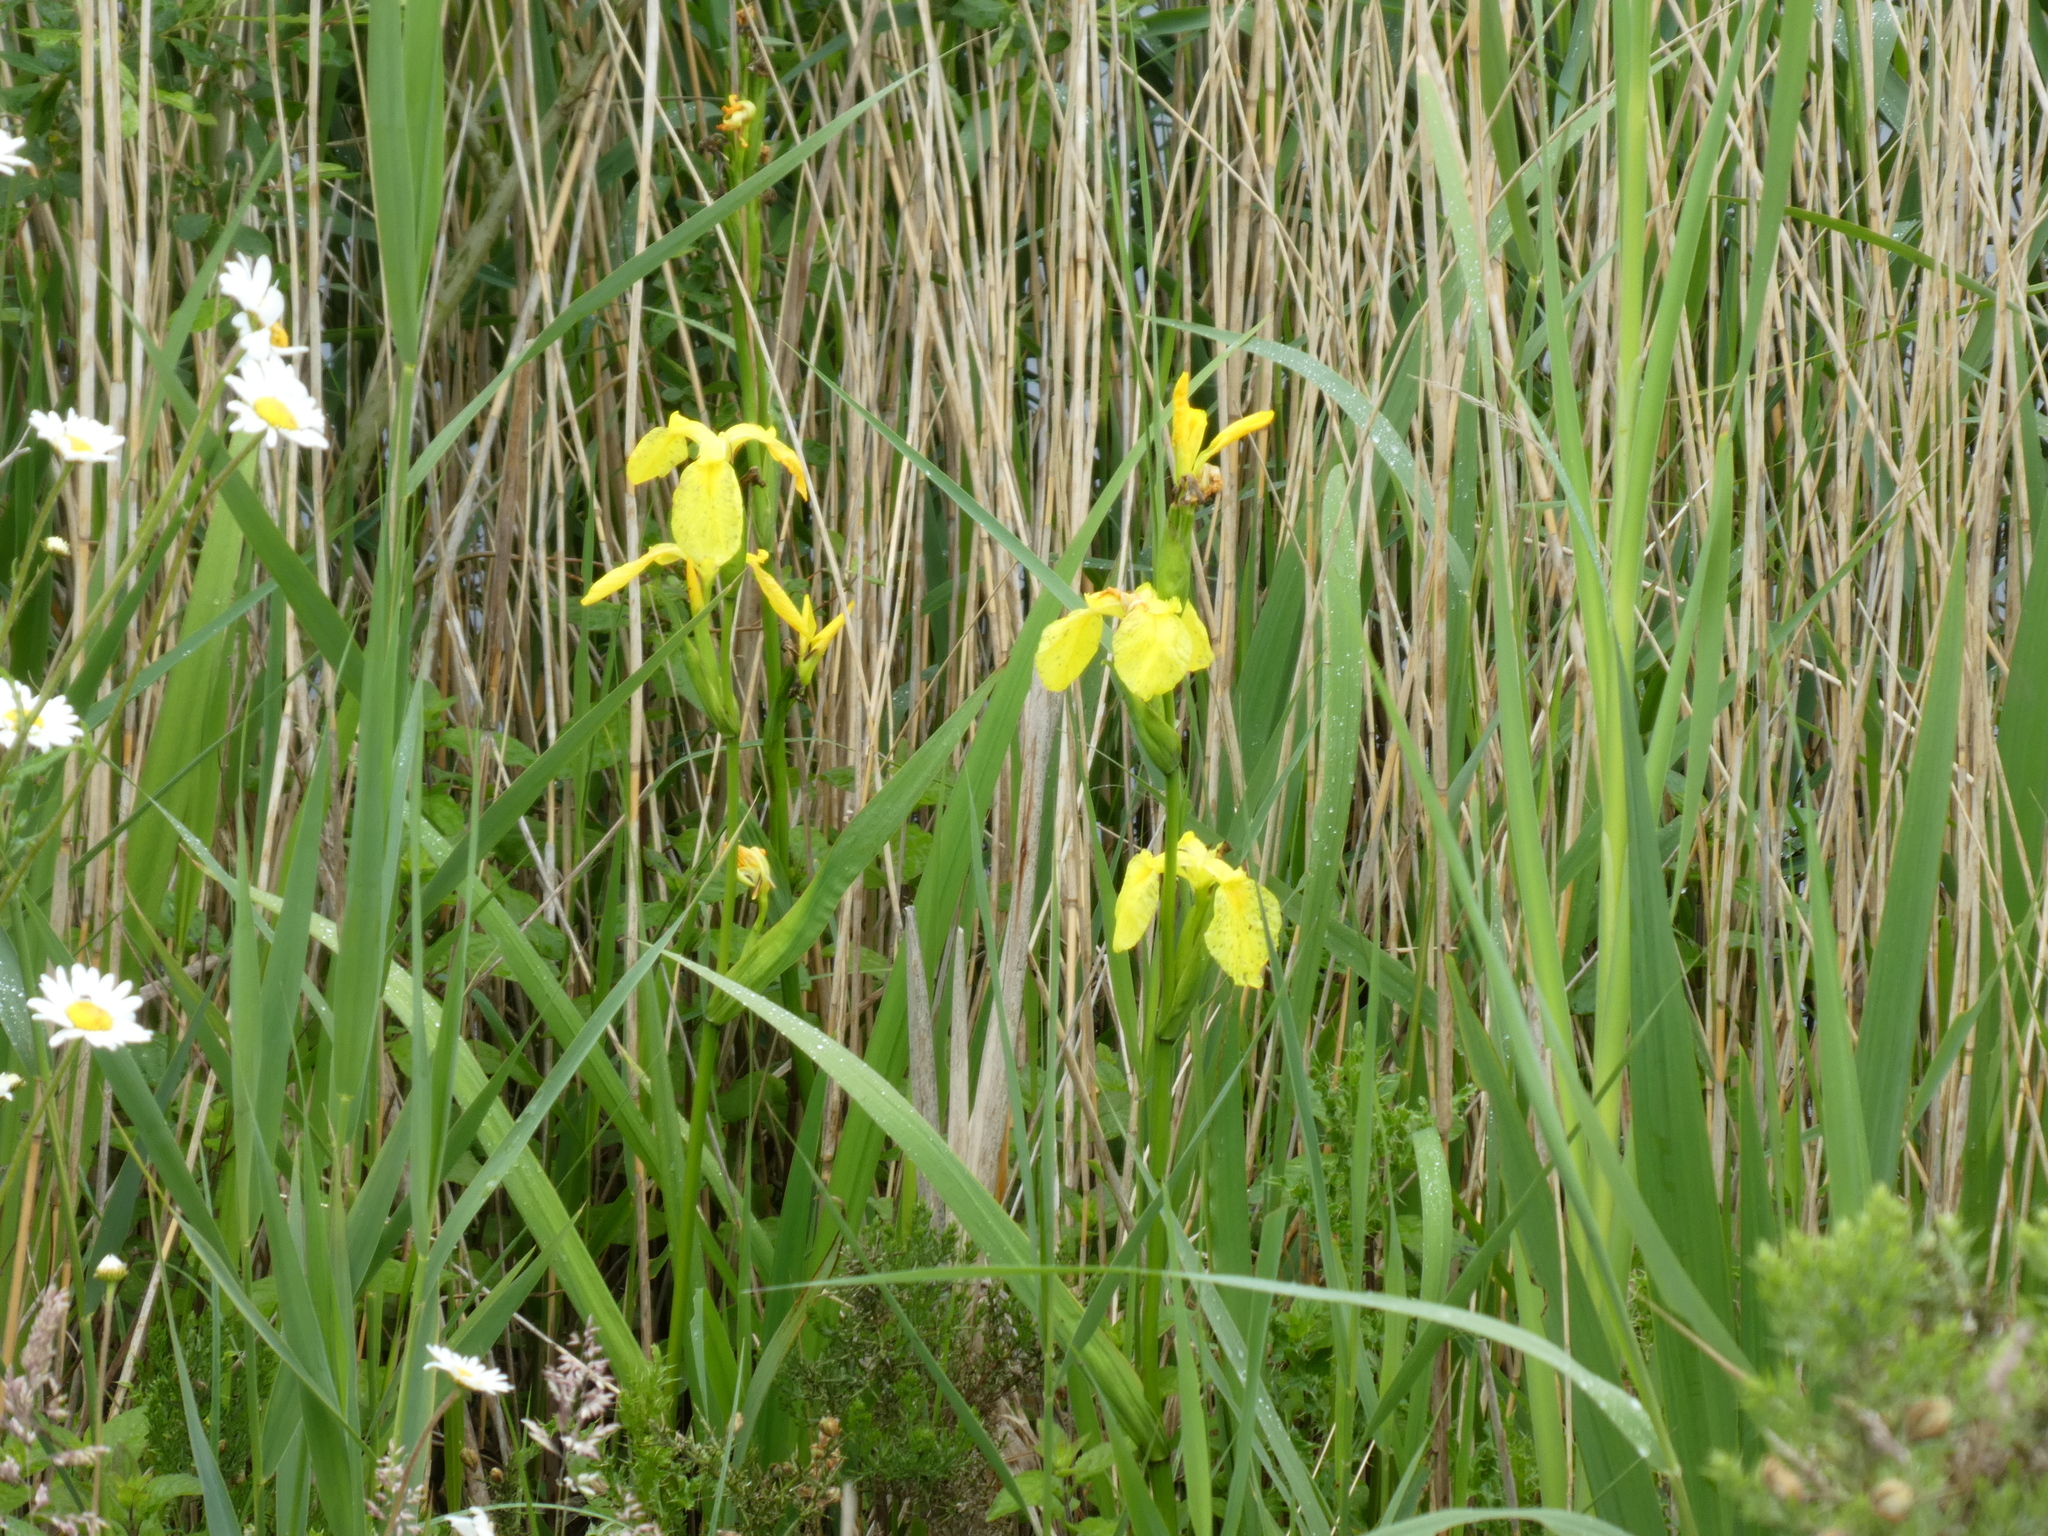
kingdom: Plantae
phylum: Tracheophyta
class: Liliopsida
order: Asparagales
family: Iridaceae
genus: Iris
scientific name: Iris pseudacorus
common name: Yellow flag
